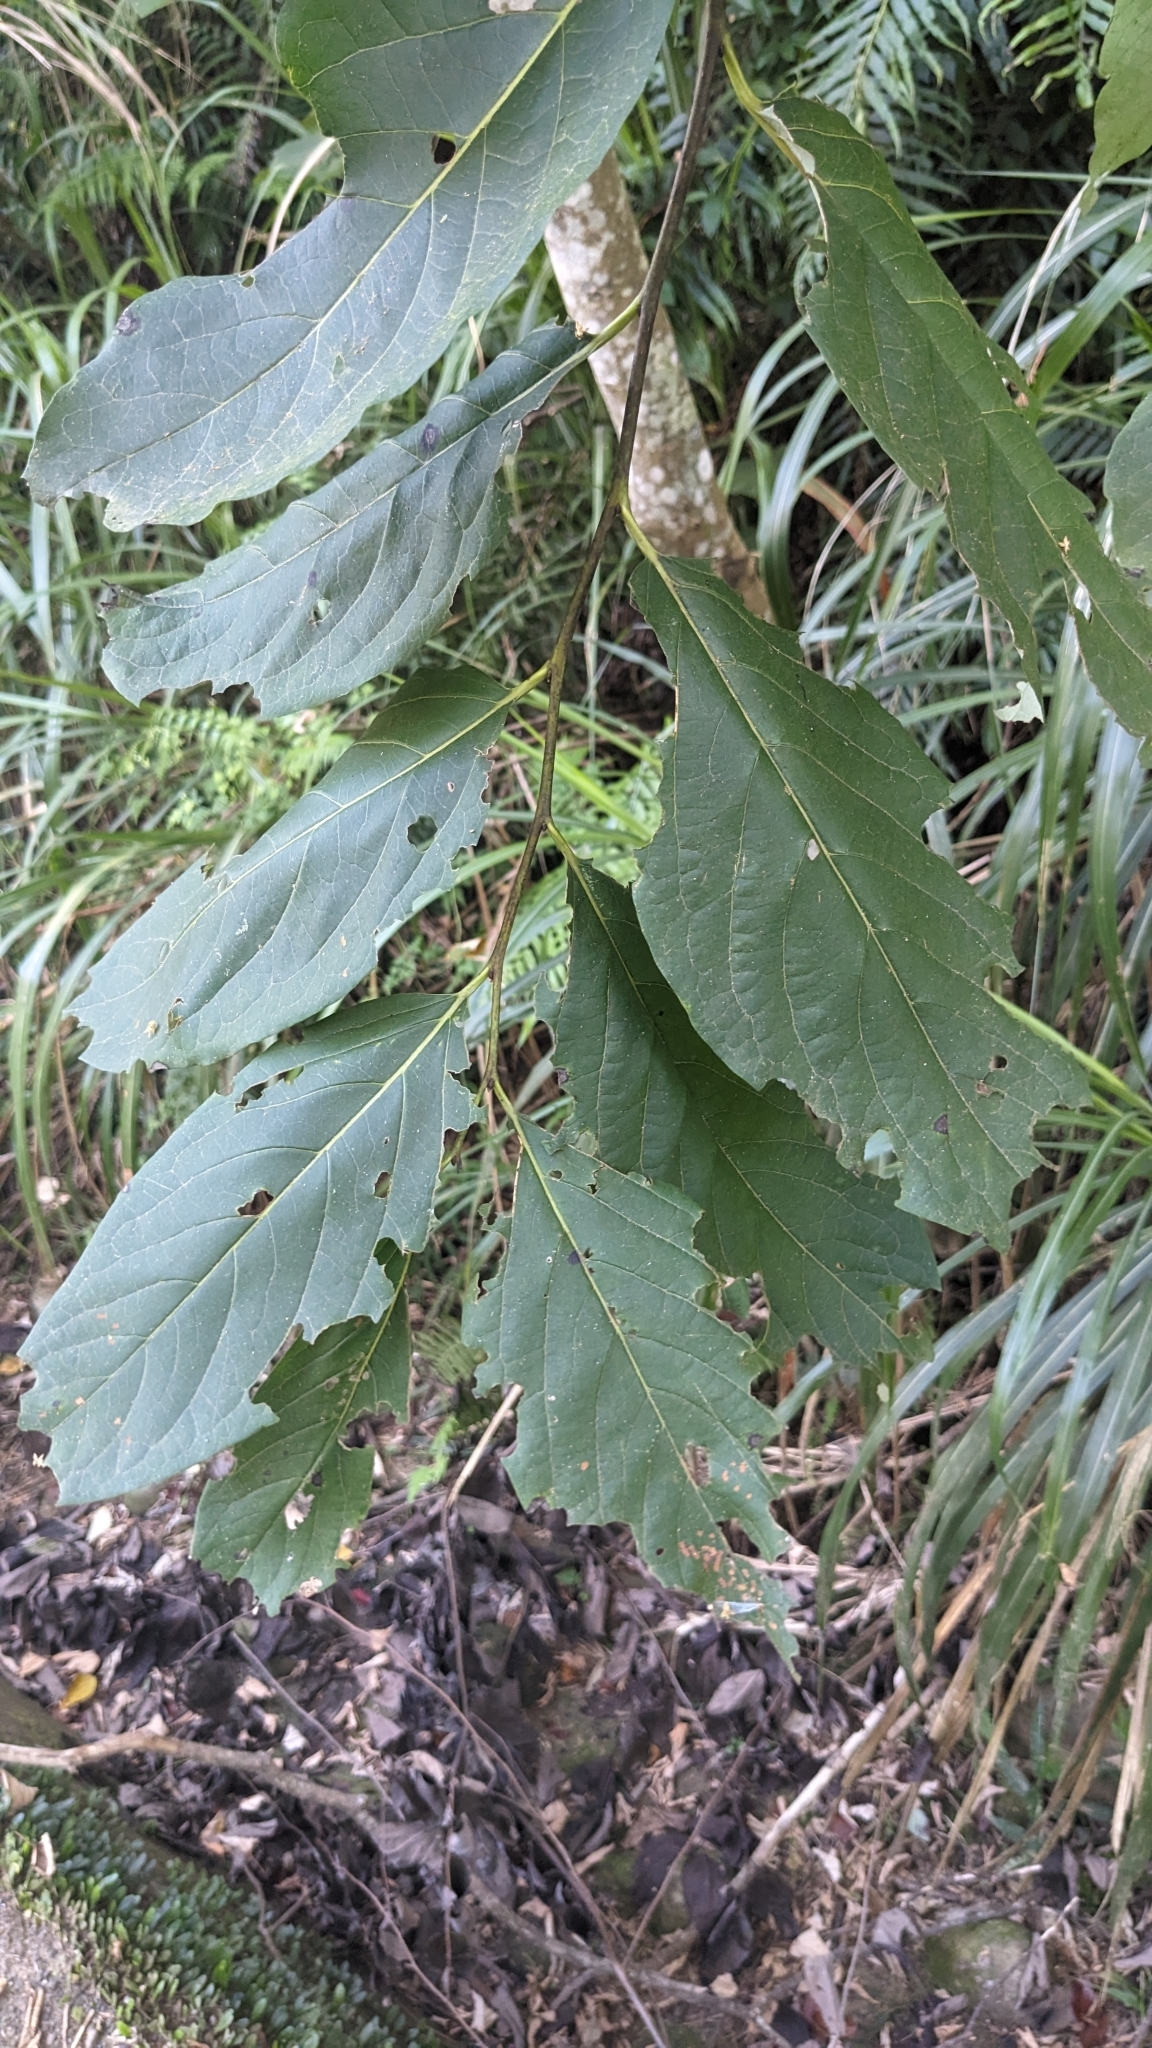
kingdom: Plantae
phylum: Tracheophyta
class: Magnoliopsida
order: Ericales
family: Ebenaceae
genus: Diospyros
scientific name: Diospyros oldhamii
